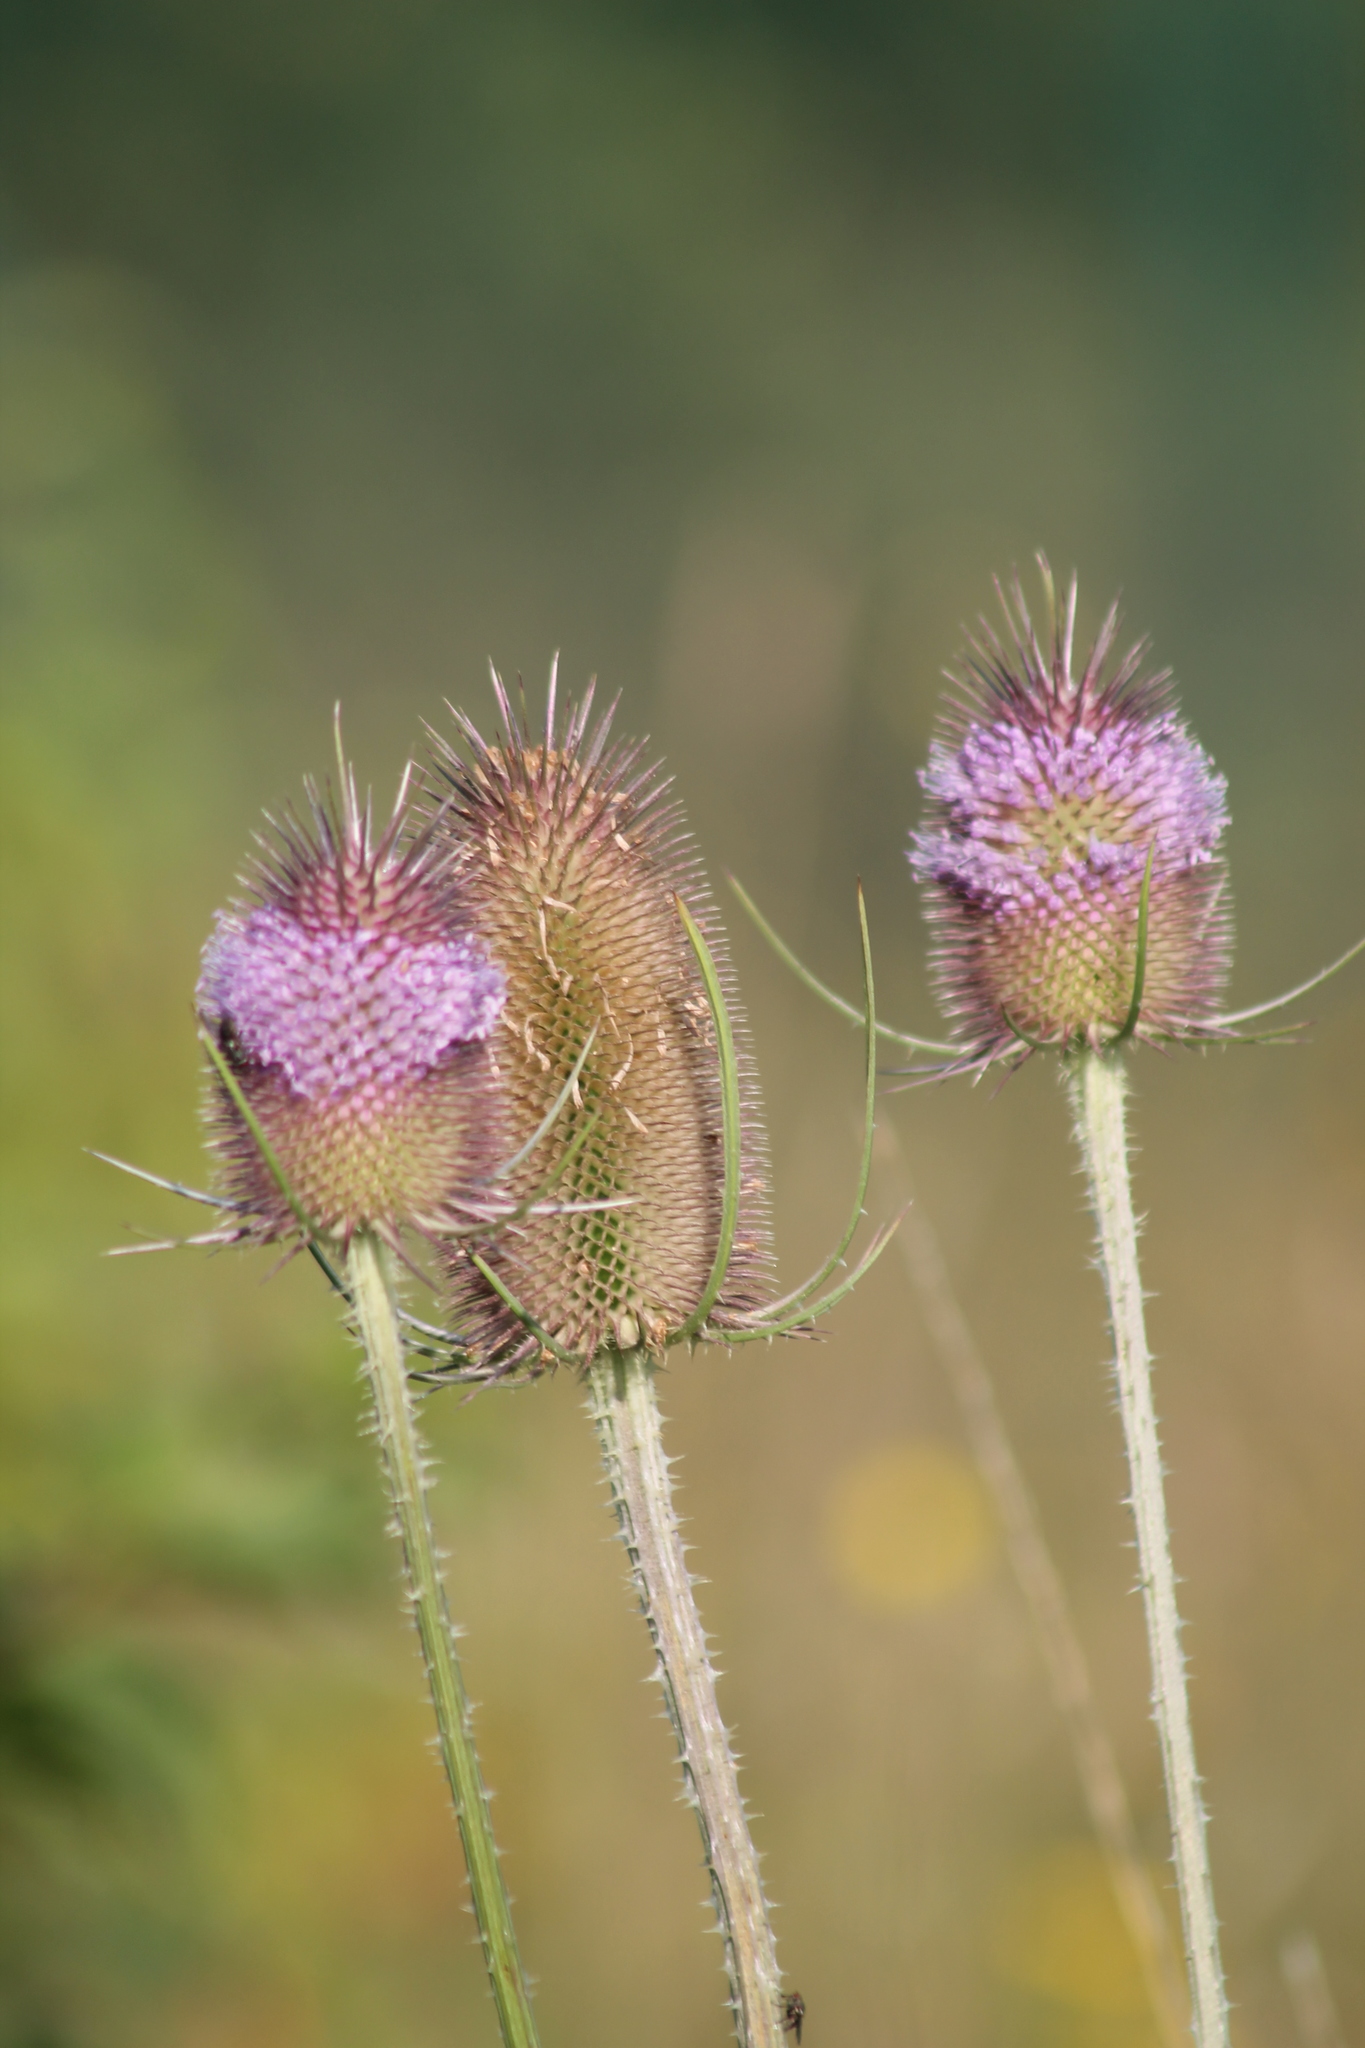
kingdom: Plantae
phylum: Tracheophyta
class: Magnoliopsida
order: Dipsacales
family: Caprifoliaceae
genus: Dipsacus
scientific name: Dipsacus fullonum
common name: Teasel
